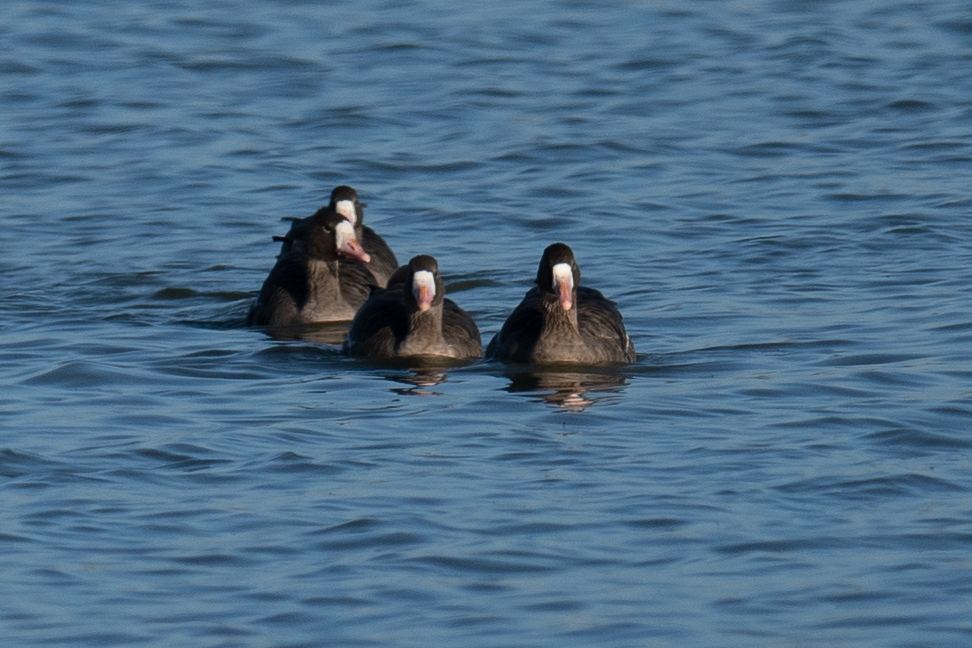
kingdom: Animalia
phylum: Chordata
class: Aves
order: Anseriformes
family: Anatidae
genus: Anser
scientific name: Anser albifrons
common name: Greater white-fronted goose
